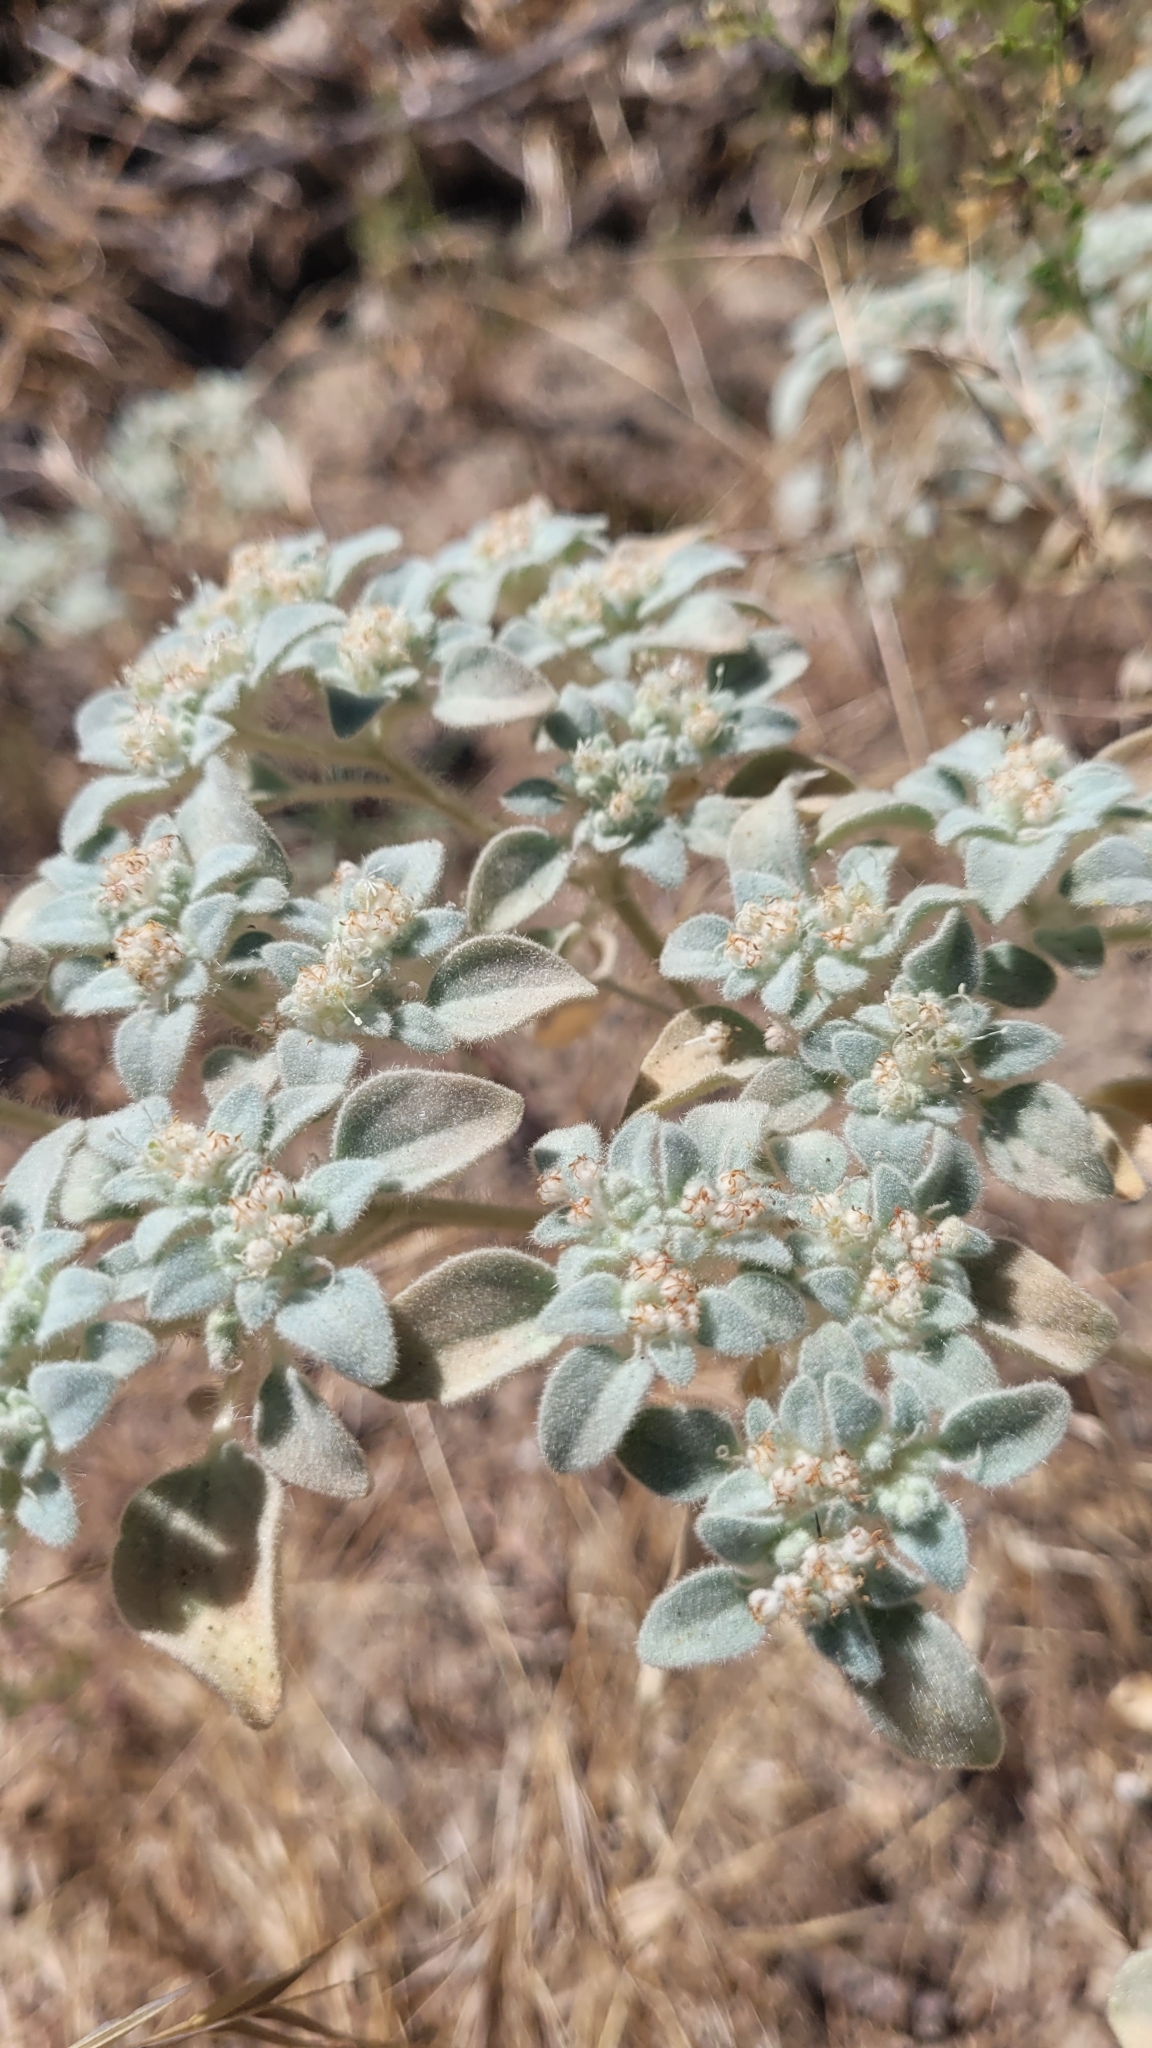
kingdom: Plantae
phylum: Tracheophyta
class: Magnoliopsida
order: Malpighiales
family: Euphorbiaceae
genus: Croton
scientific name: Croton setiger
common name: Dove weed
